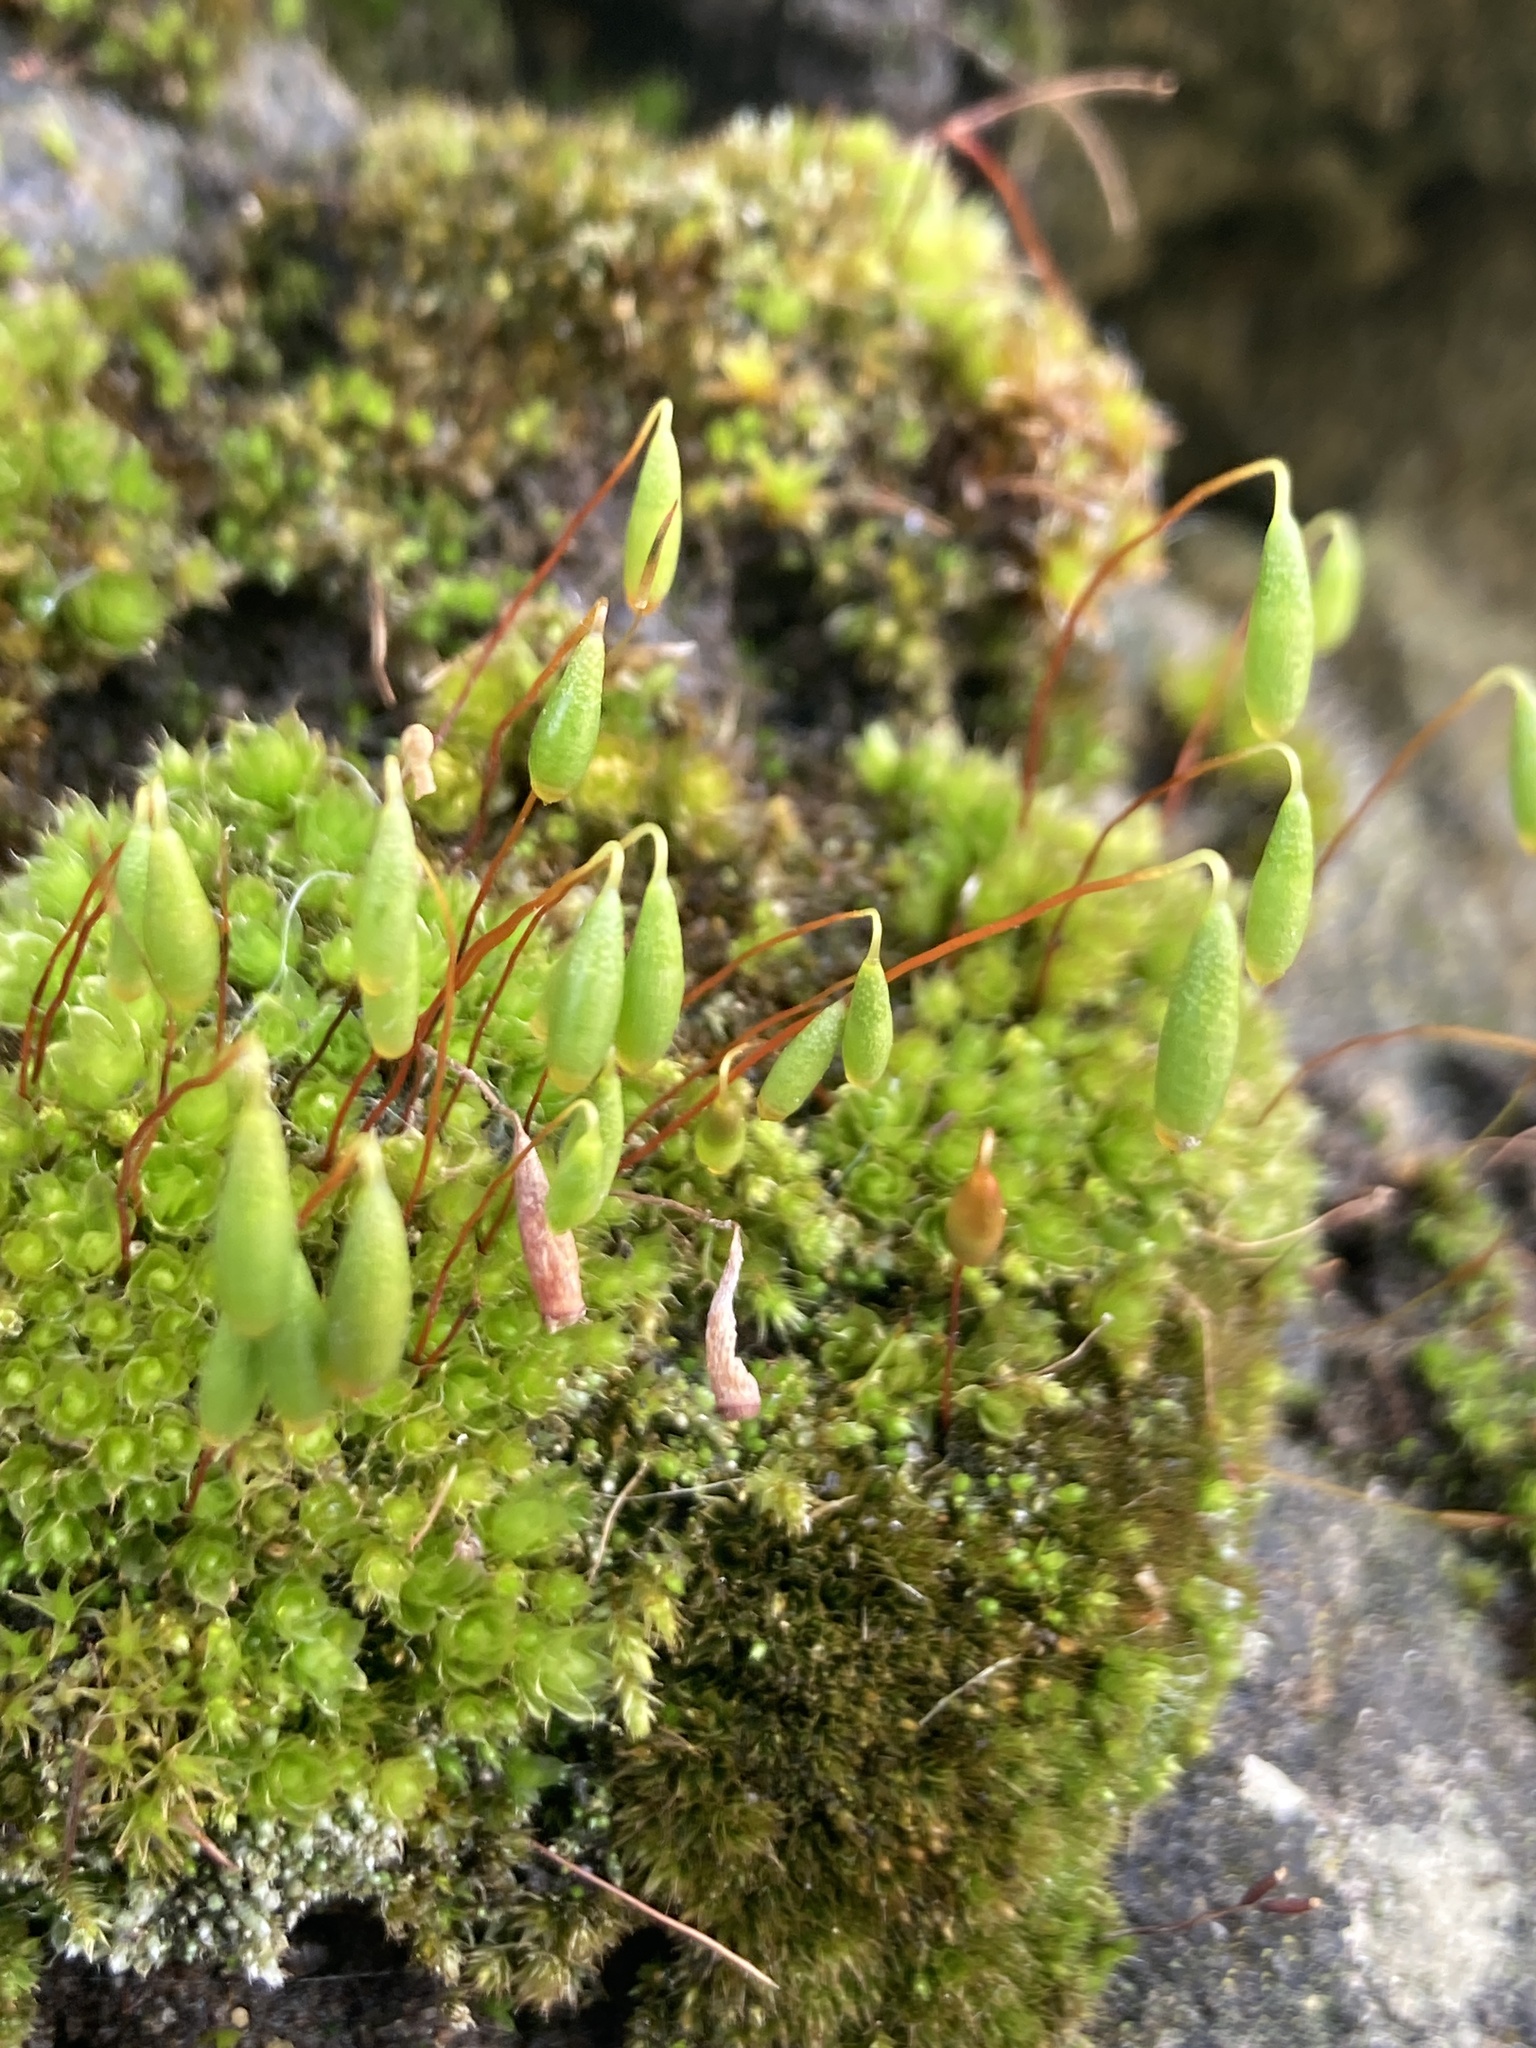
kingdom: Plantae
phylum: Bryophyta
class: Bryopsida
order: Bryales
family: Bryaceae
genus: Rosulabryum
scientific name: Rosulabryum capillare
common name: Capillary thread-moss
